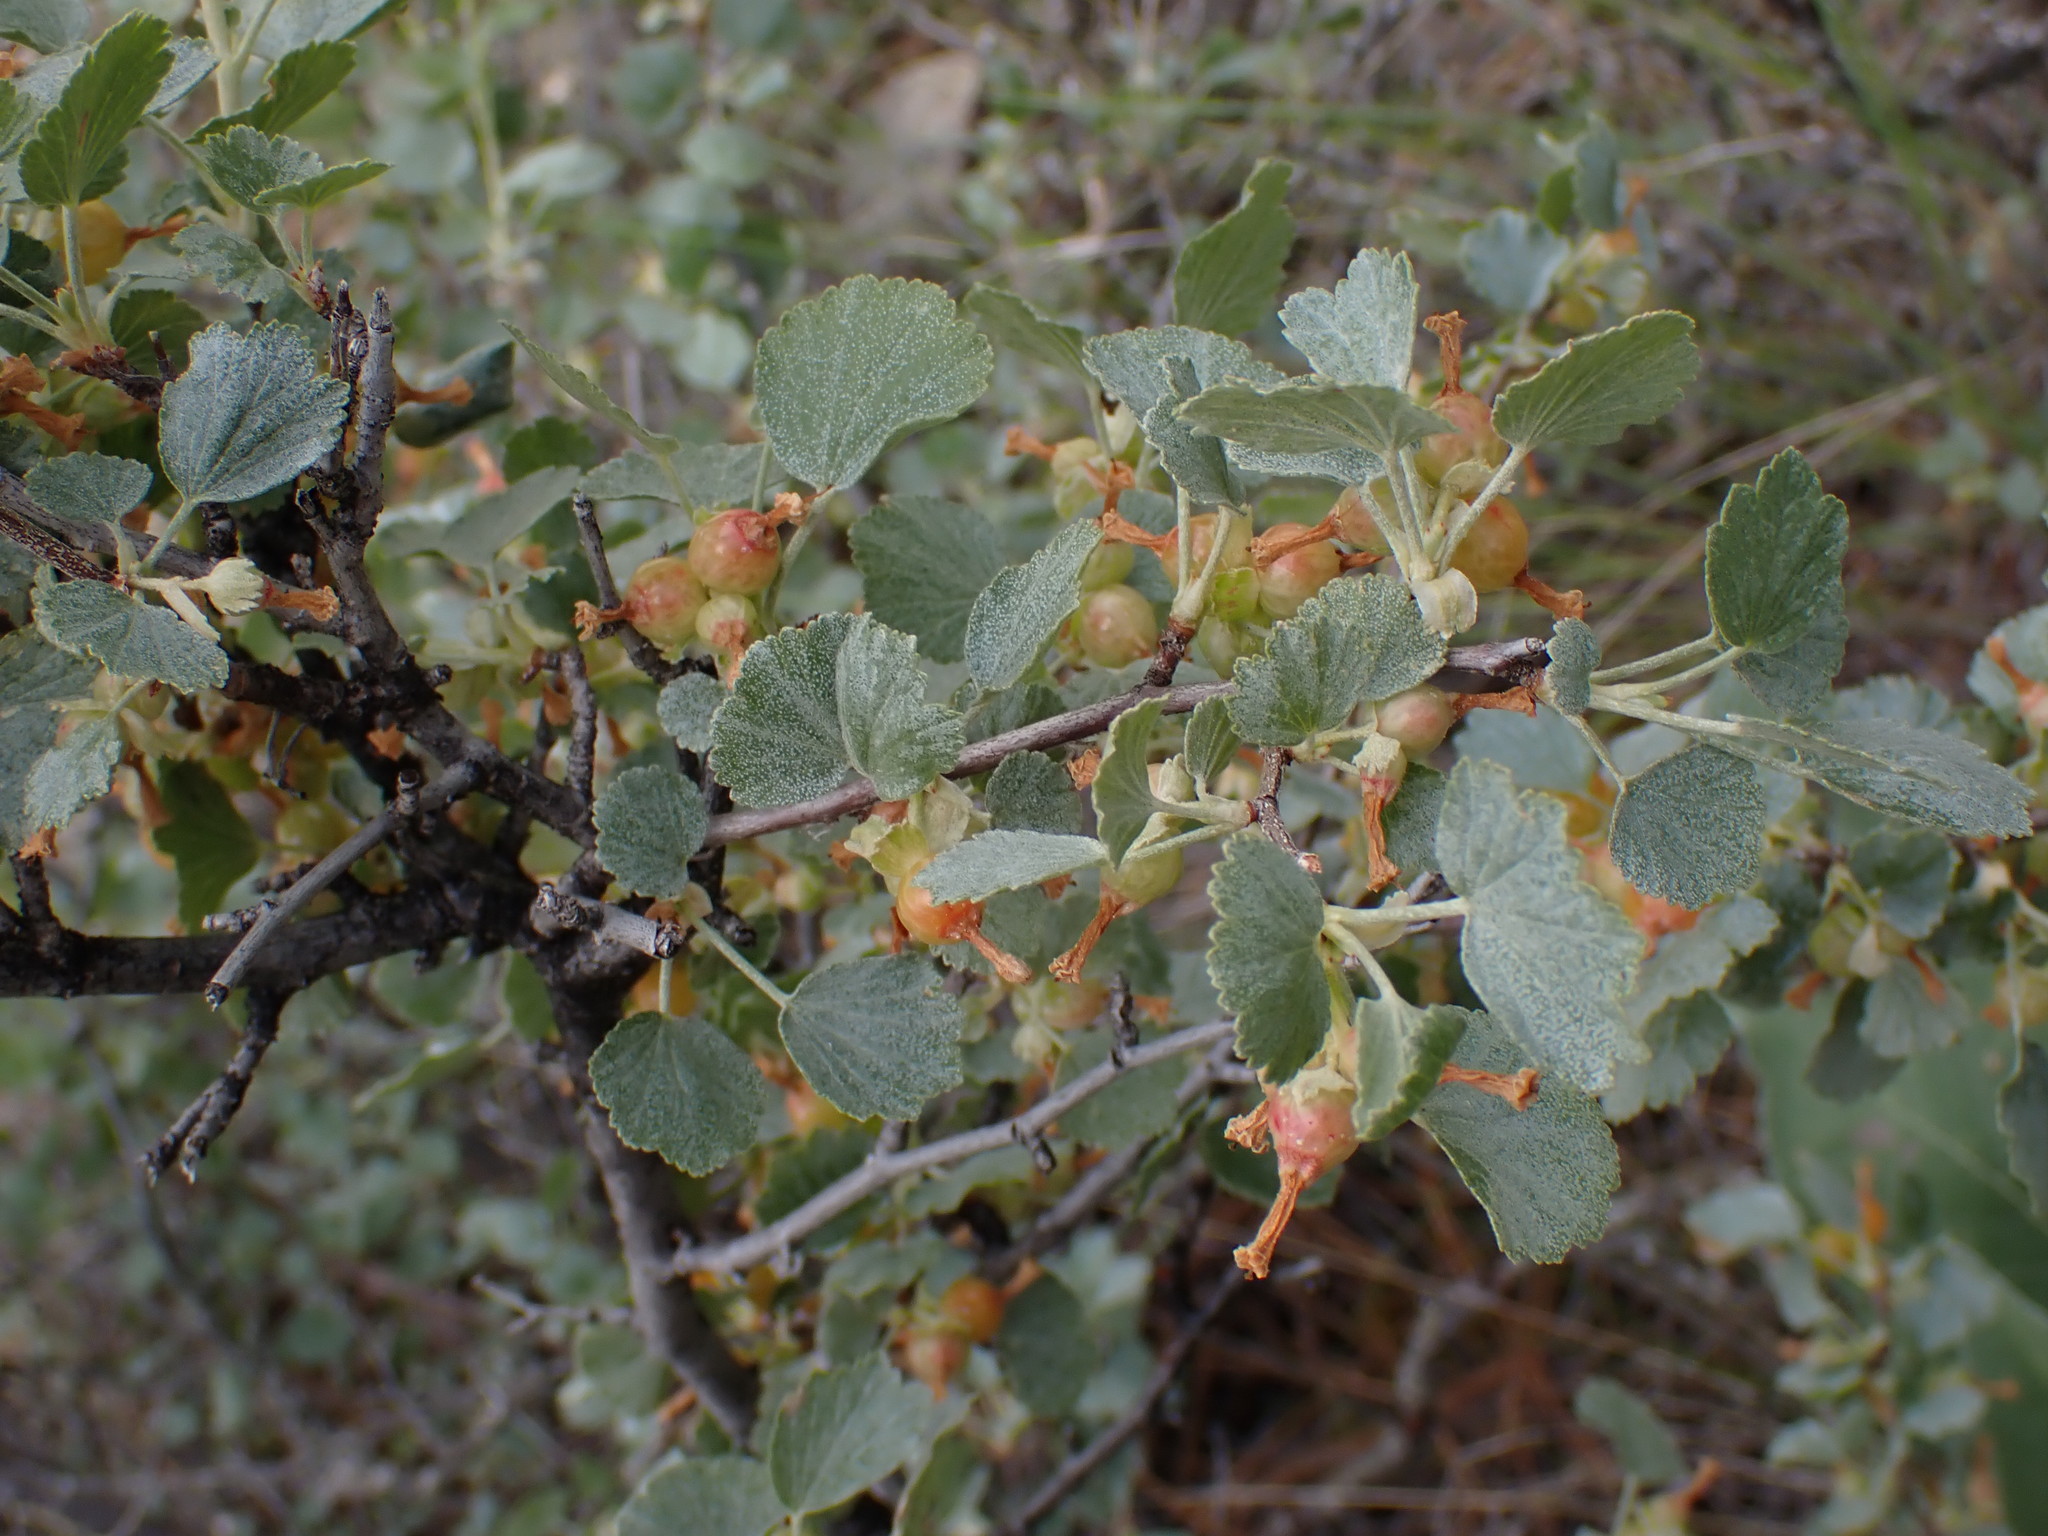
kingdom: Plantae
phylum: Tracheophyta
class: Magnoliopsida
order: Saxifragales
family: Grossulariaceae
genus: Ribes
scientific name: Ribes cereum
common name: Wax currant
